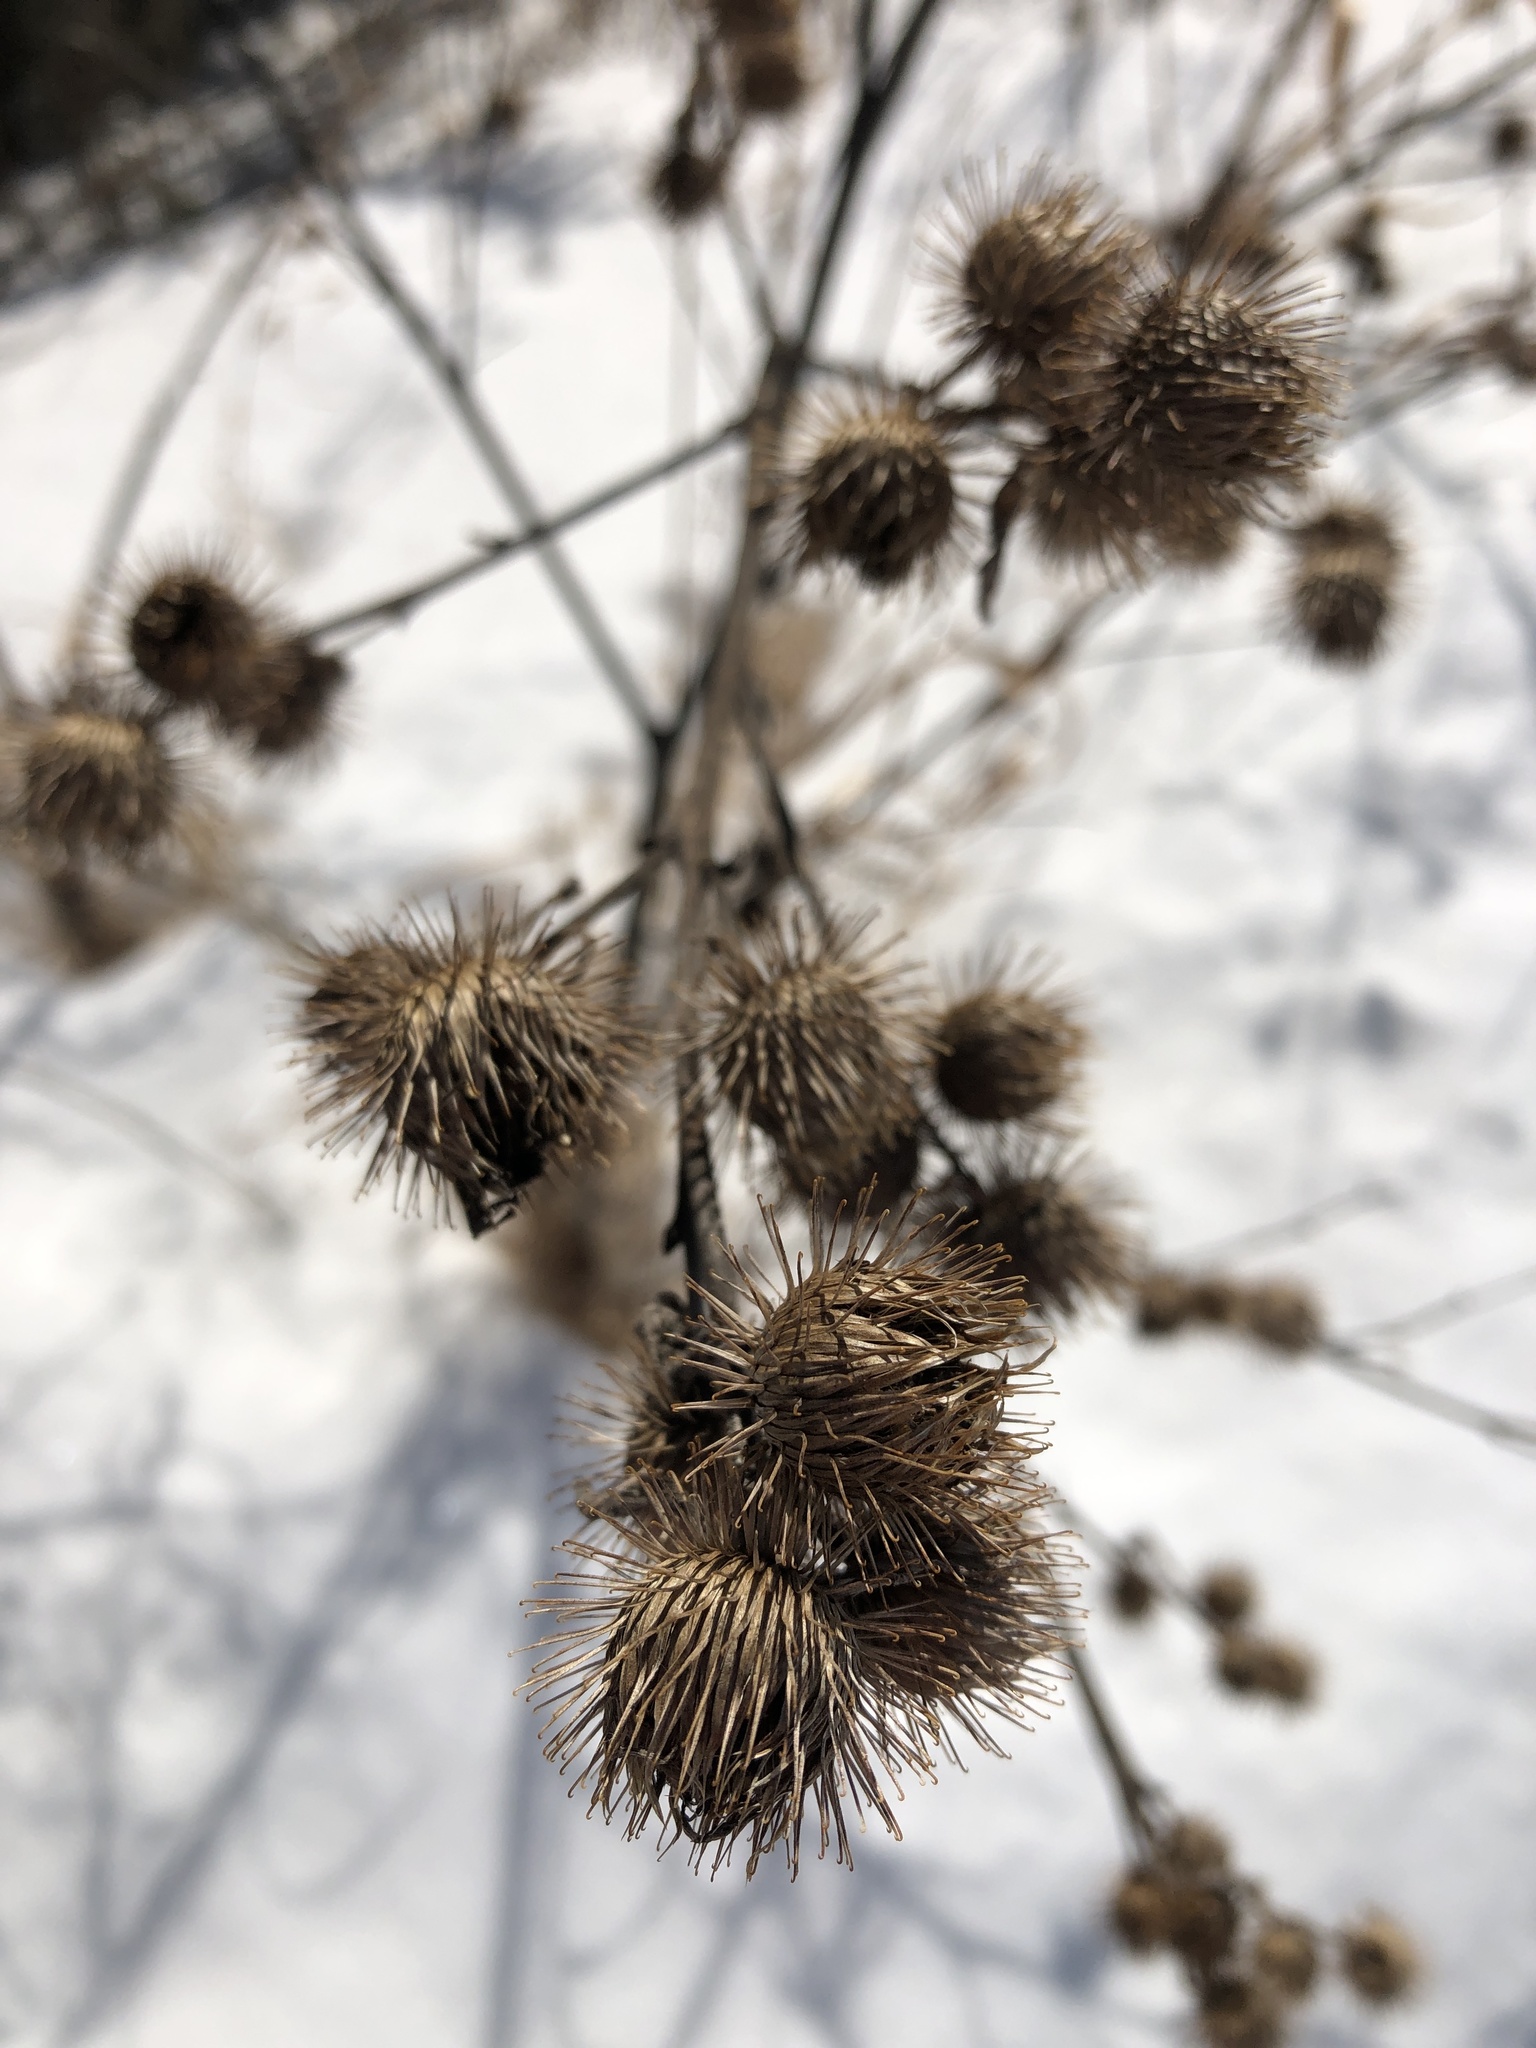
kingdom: Plantae
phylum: Tracheophyta
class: Magnoliopsida
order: Asterales
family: Asteraceae
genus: Arctium
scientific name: Arctium minus
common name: Lesser burdock
